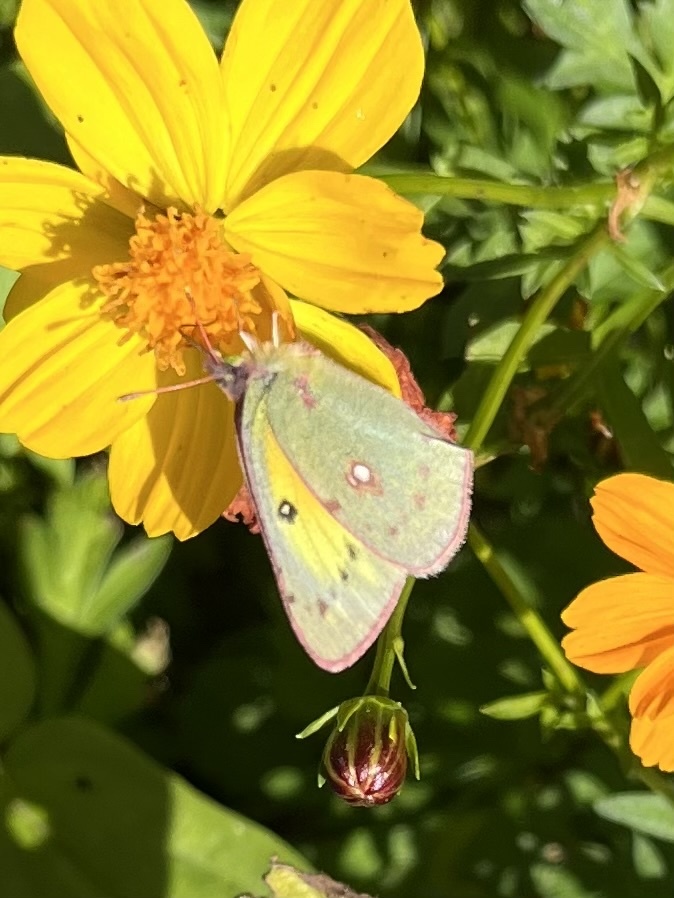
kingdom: Animalia
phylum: Arthropoda
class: Insecta
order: Lepidoptera
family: Pieridae
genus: Colias
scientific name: Colias eurytheme
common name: Alfalfa butterfly
